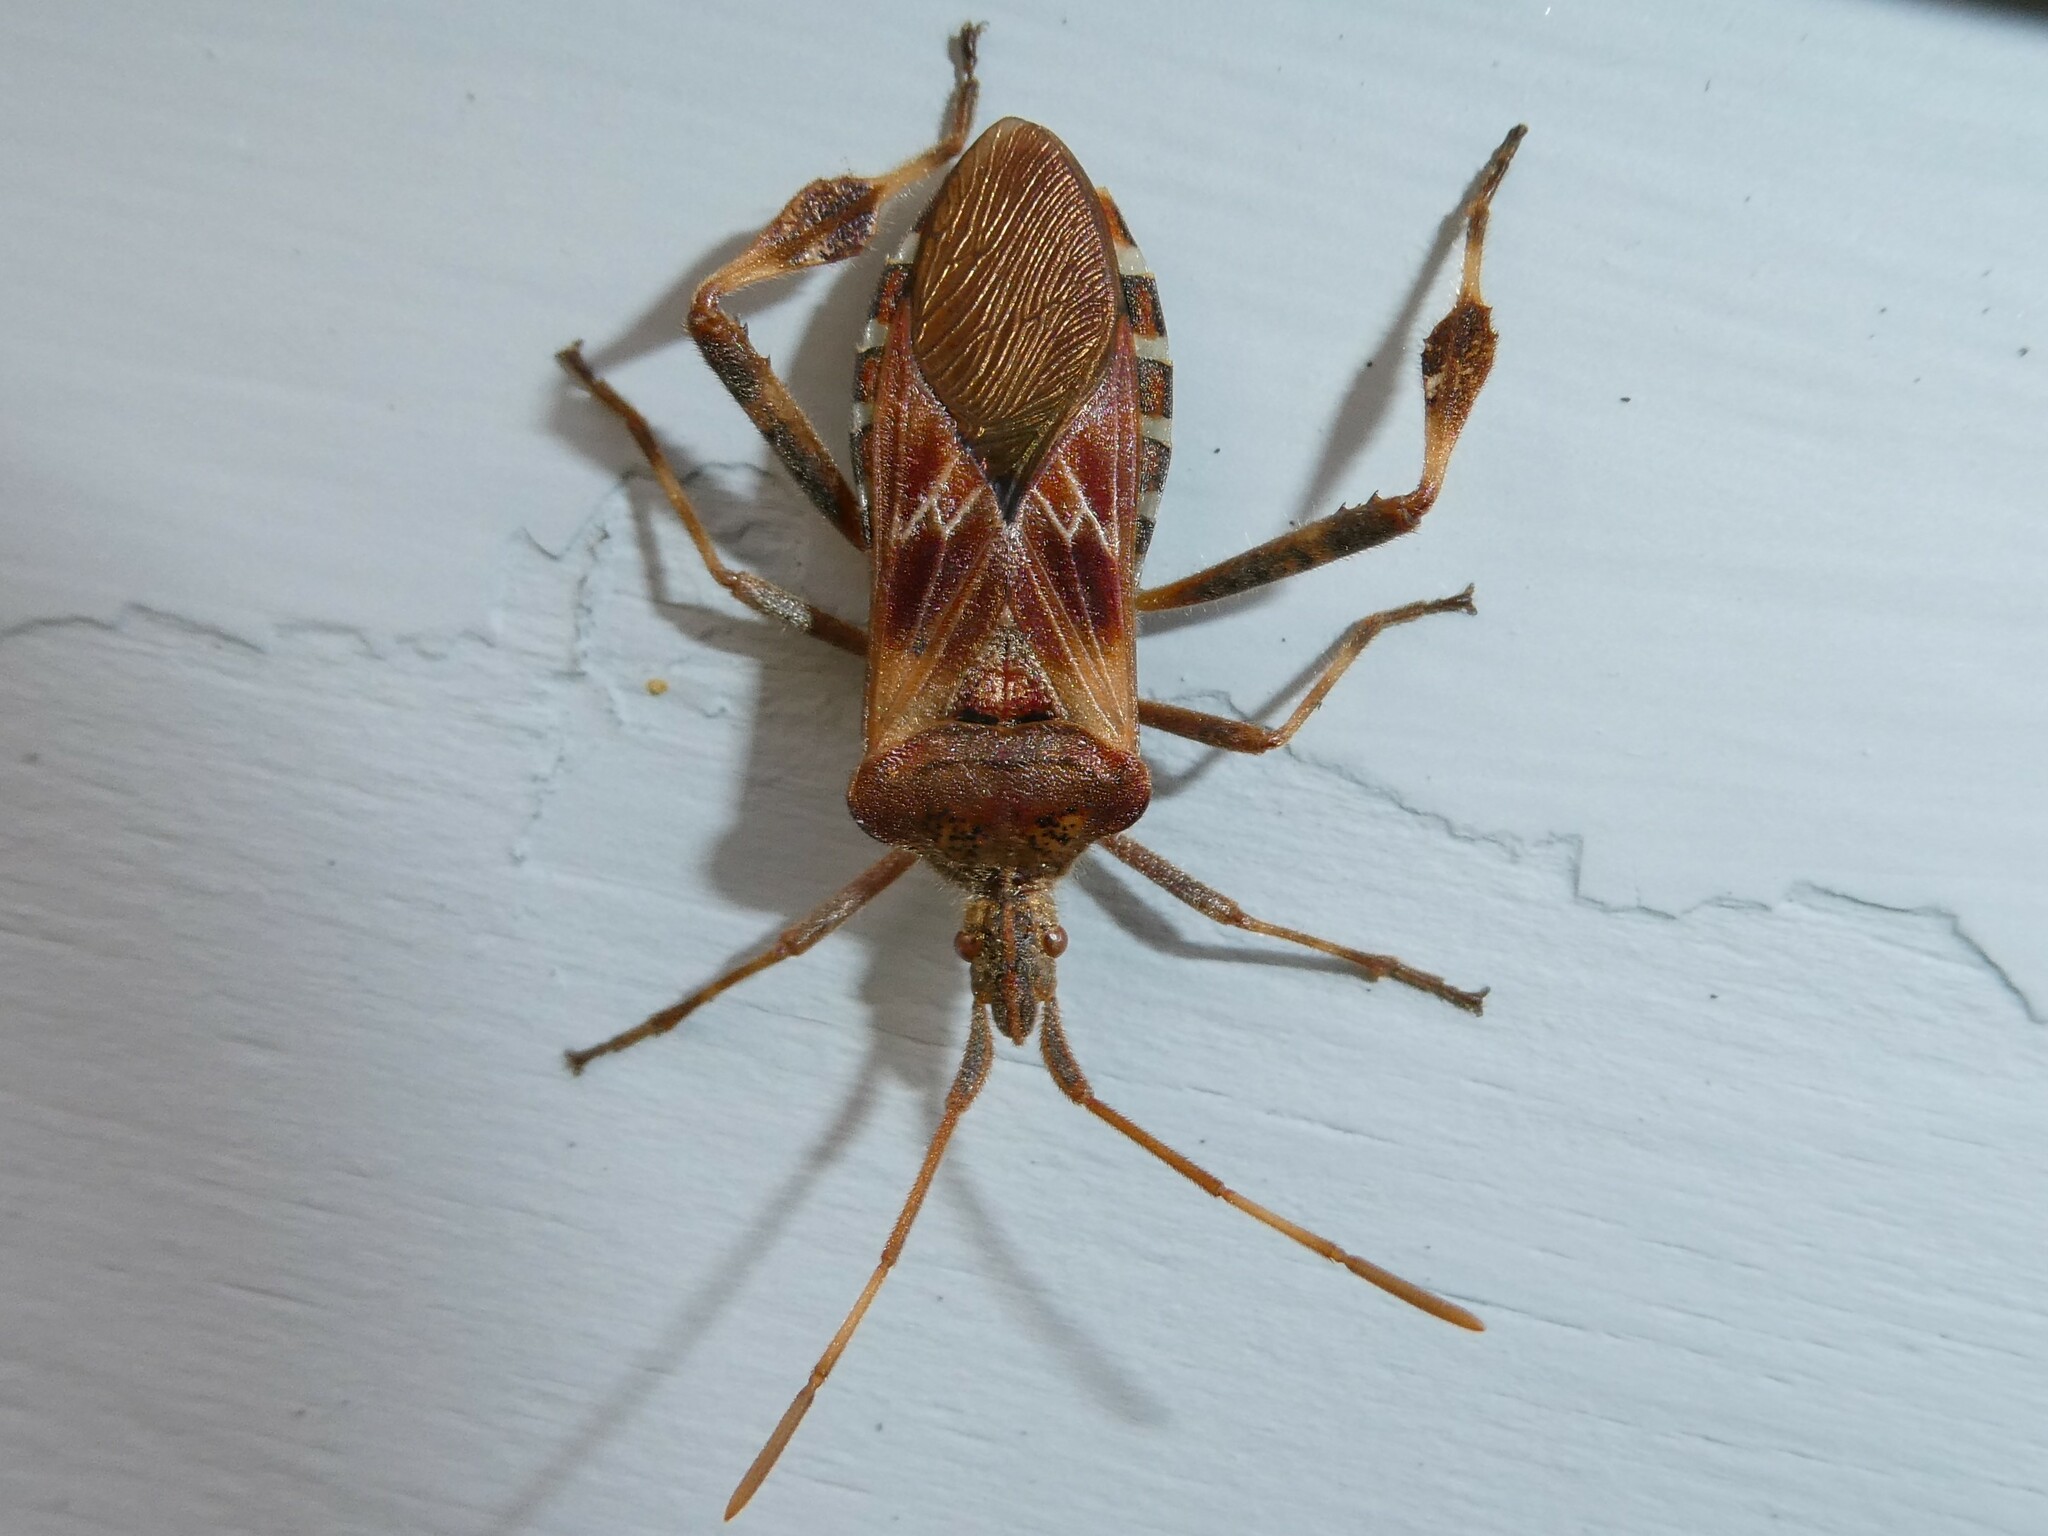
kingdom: Animalia
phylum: Arthropoda
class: Insecta
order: Hemiptera
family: Coreidae
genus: Leptoglossus
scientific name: Leptoglossus occidentalis
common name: Western conifer-seed bug
